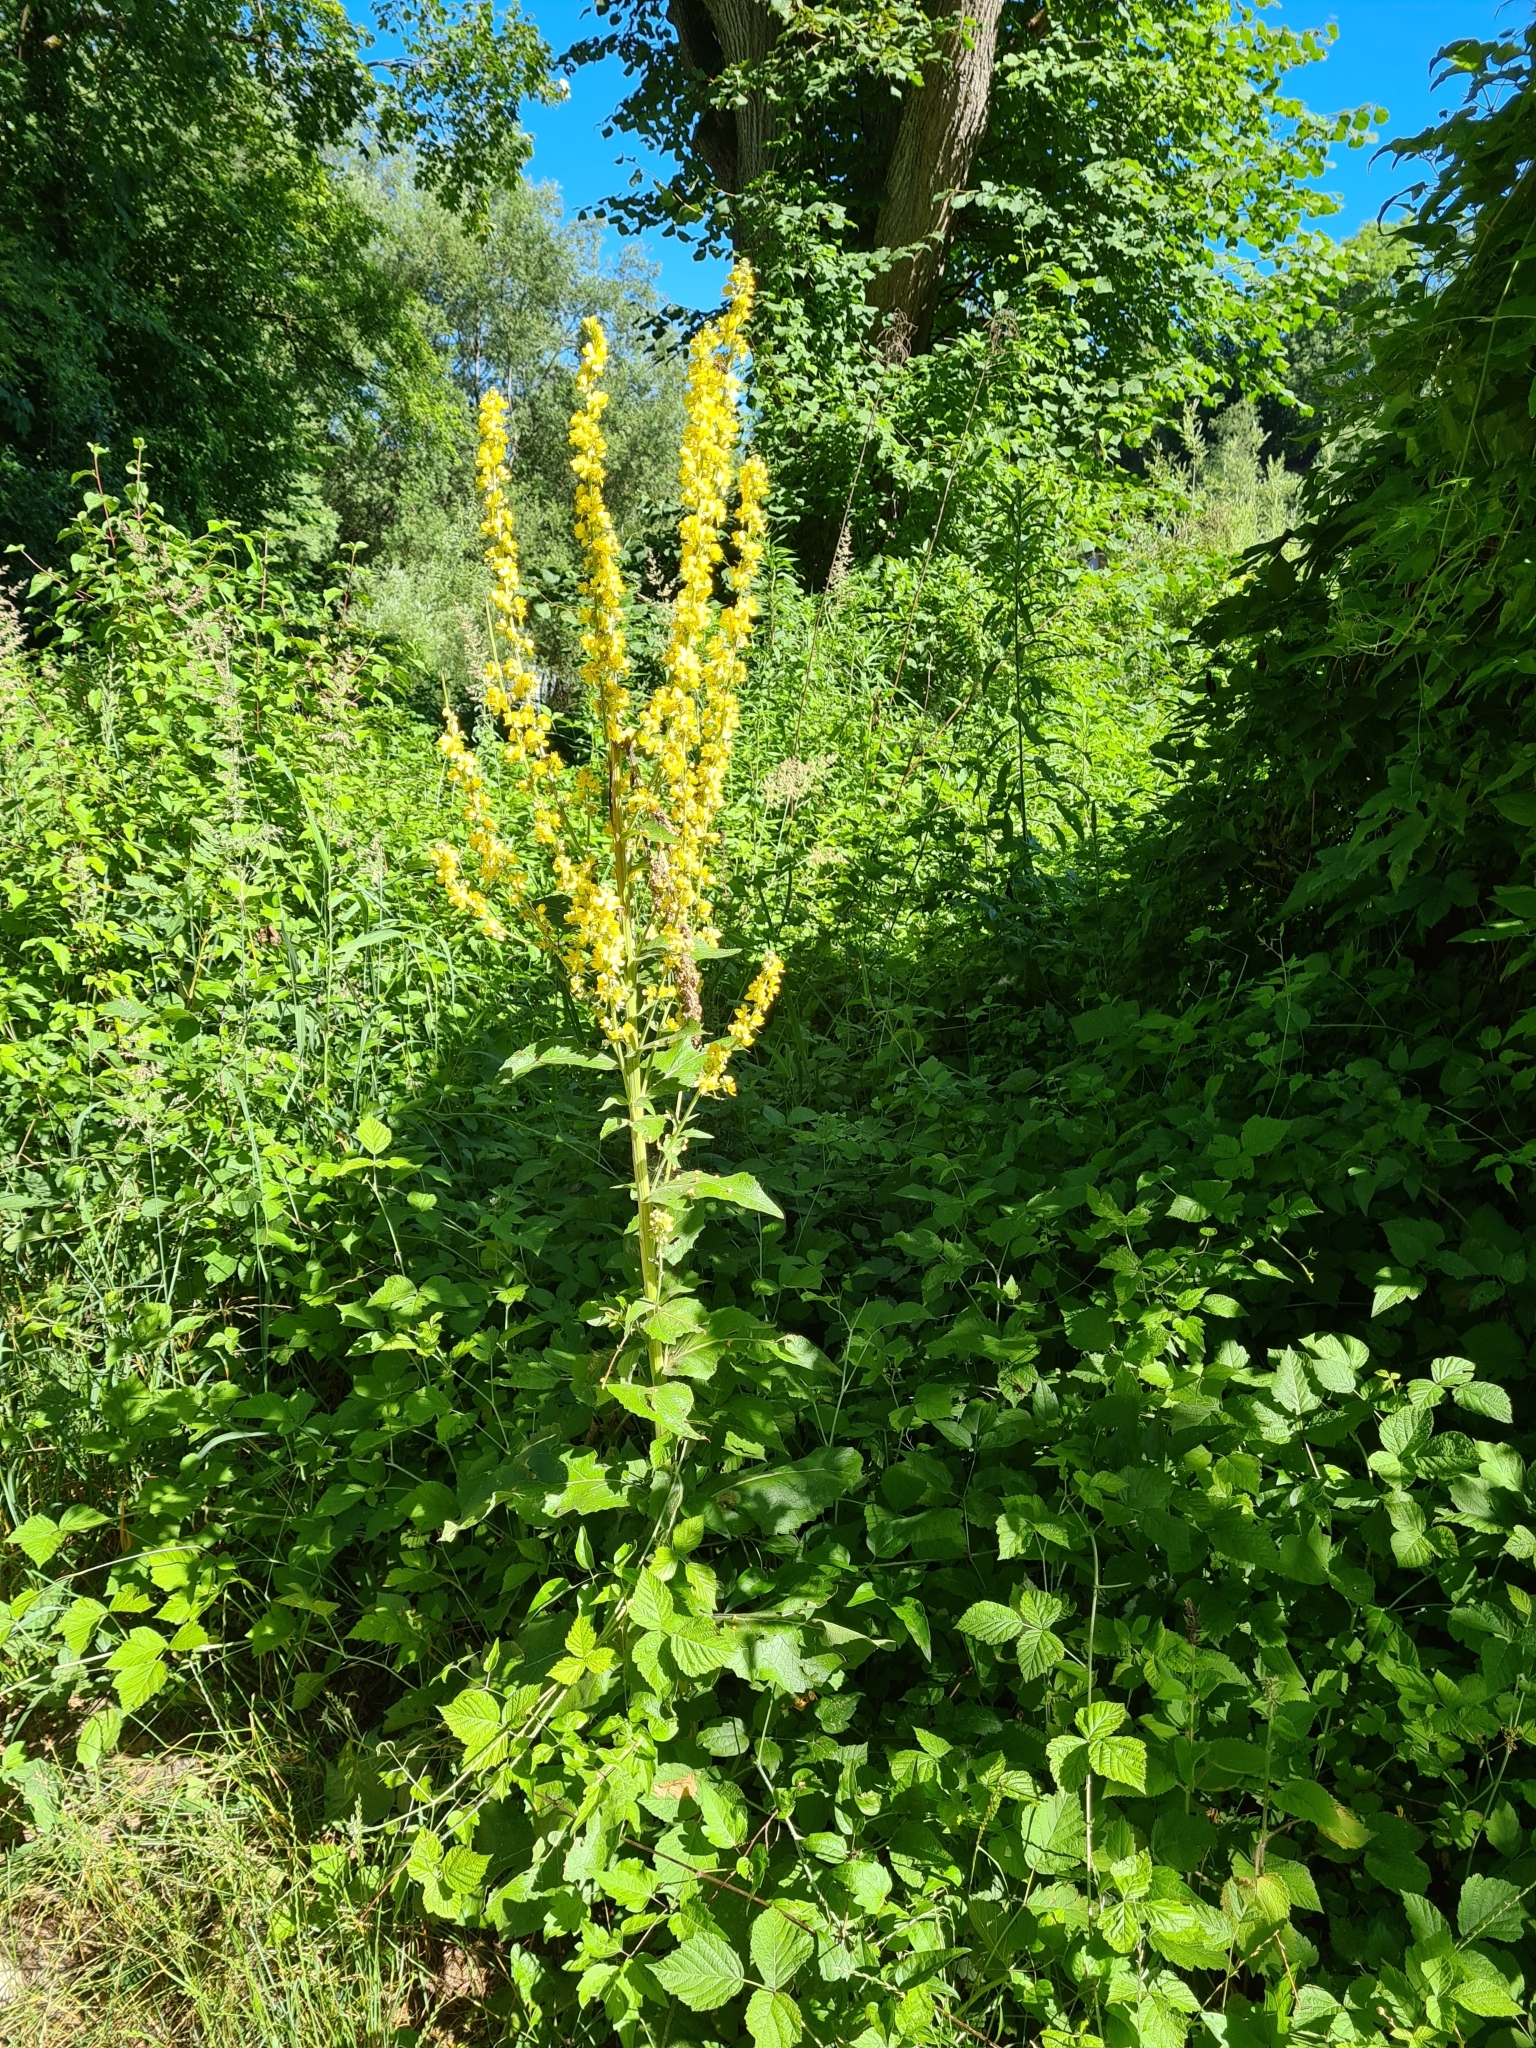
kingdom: Plantae
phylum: Tracheophyta
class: Magnoliopsida
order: Lamiales
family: Scrophulariaceae
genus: Verbascum
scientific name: Verbascum lychnitis
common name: White mullein
